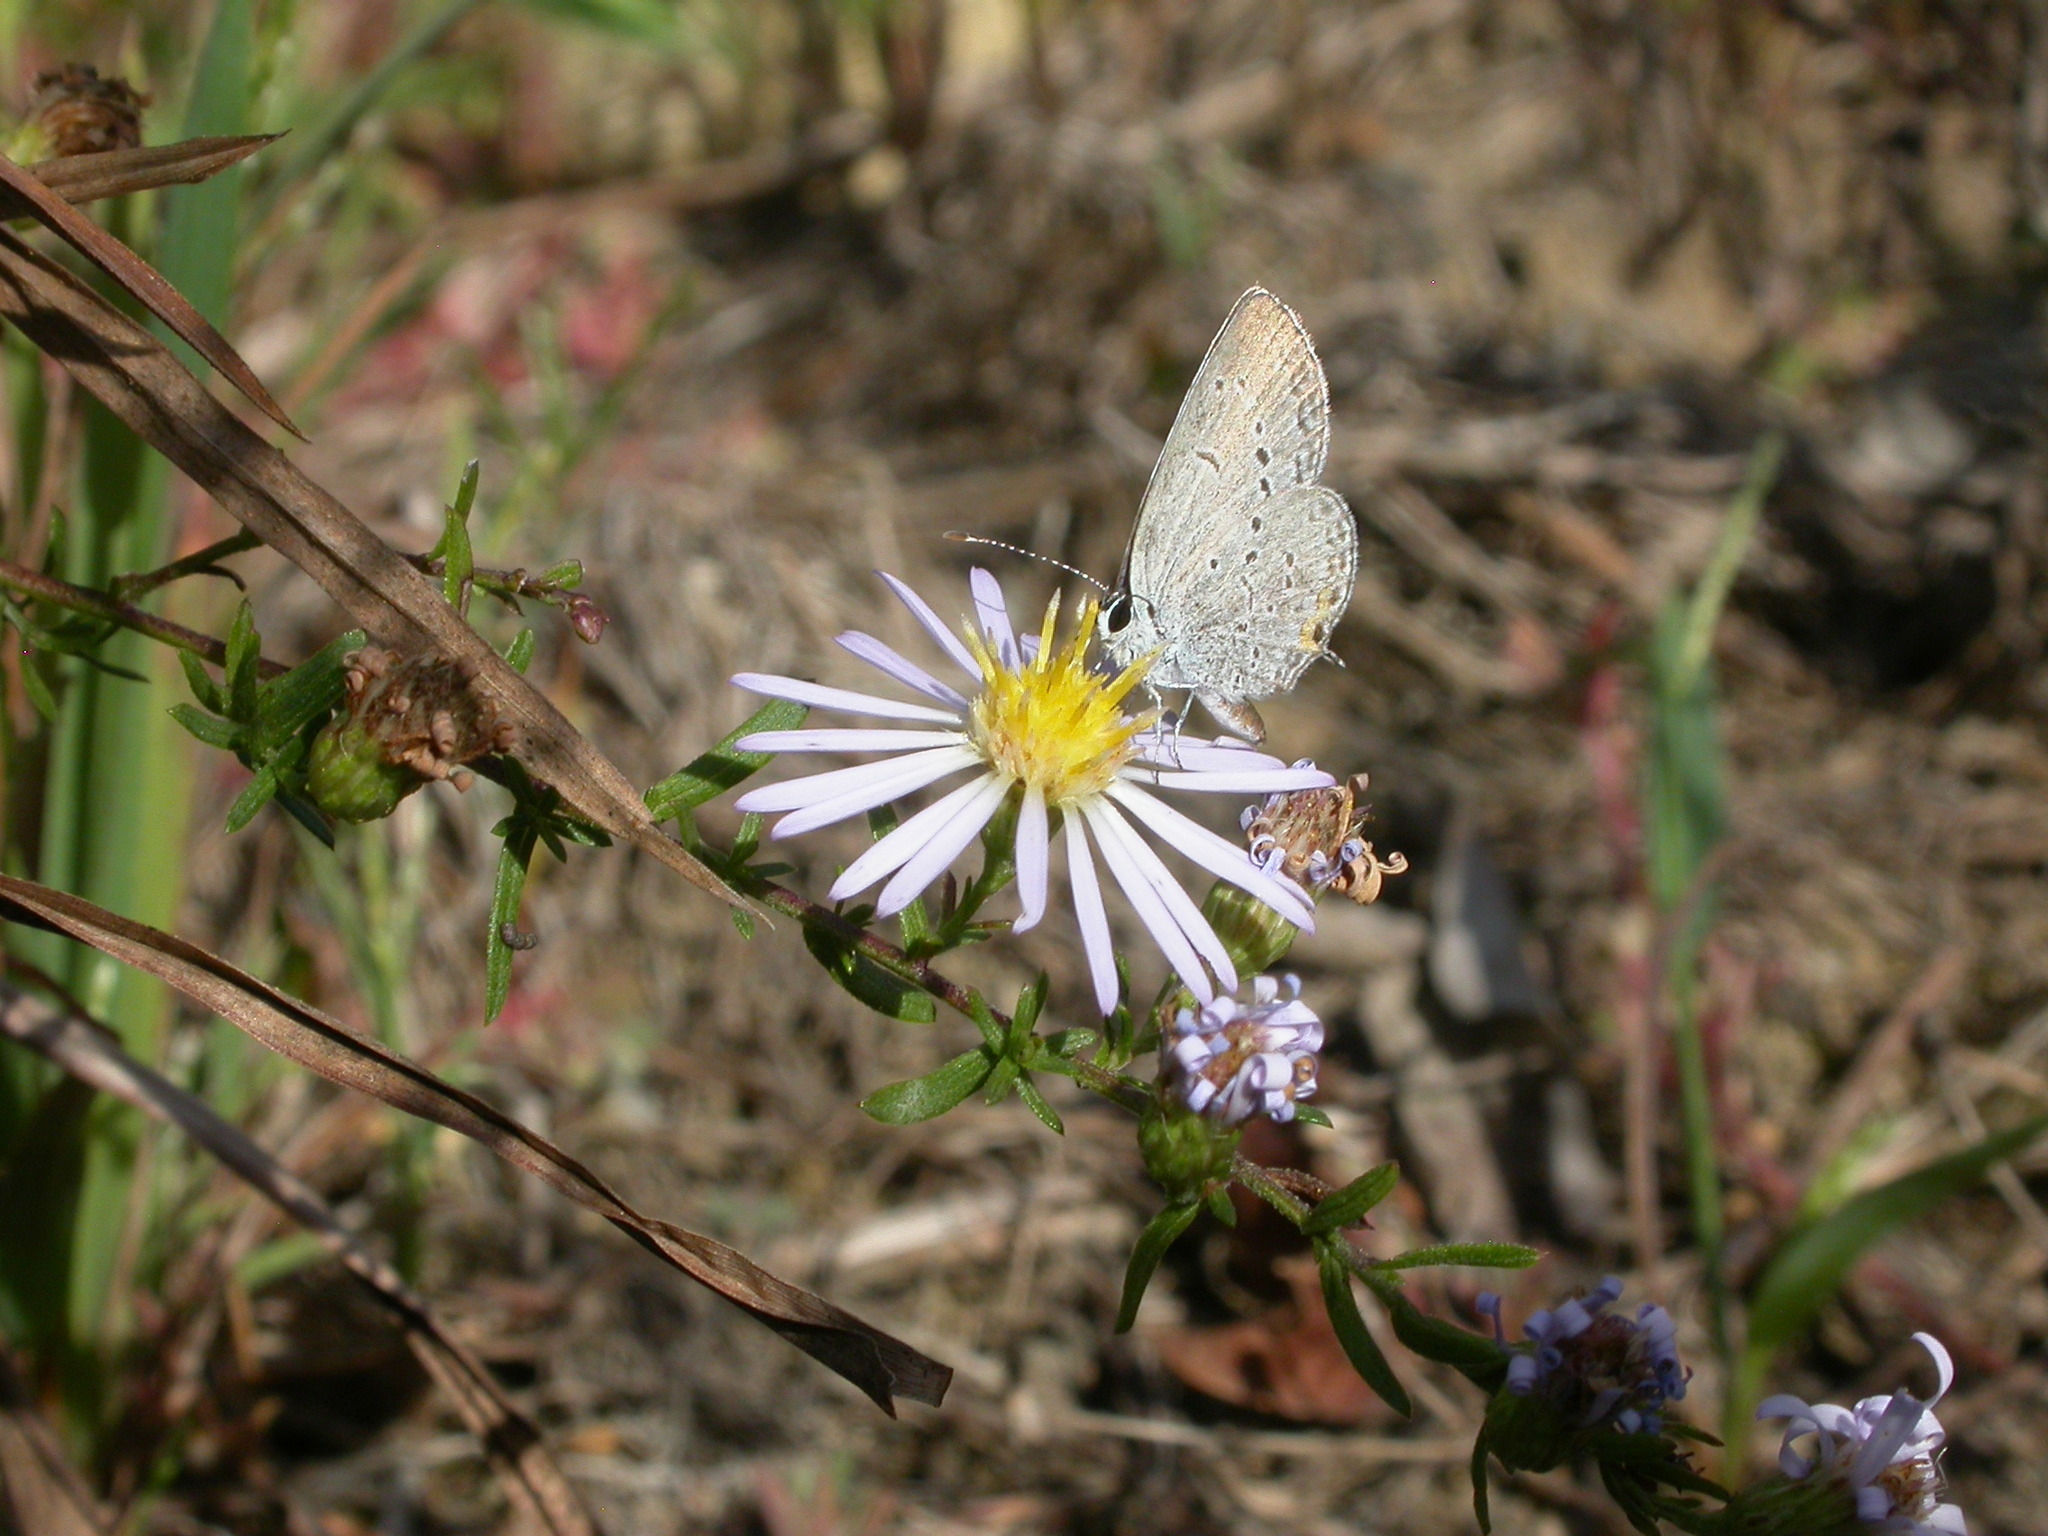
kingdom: Animalia
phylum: Arthropoda
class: Insecta
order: Lepidoptera
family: Lycaenidae
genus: Elkalyce
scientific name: Elkalyce comyntas
